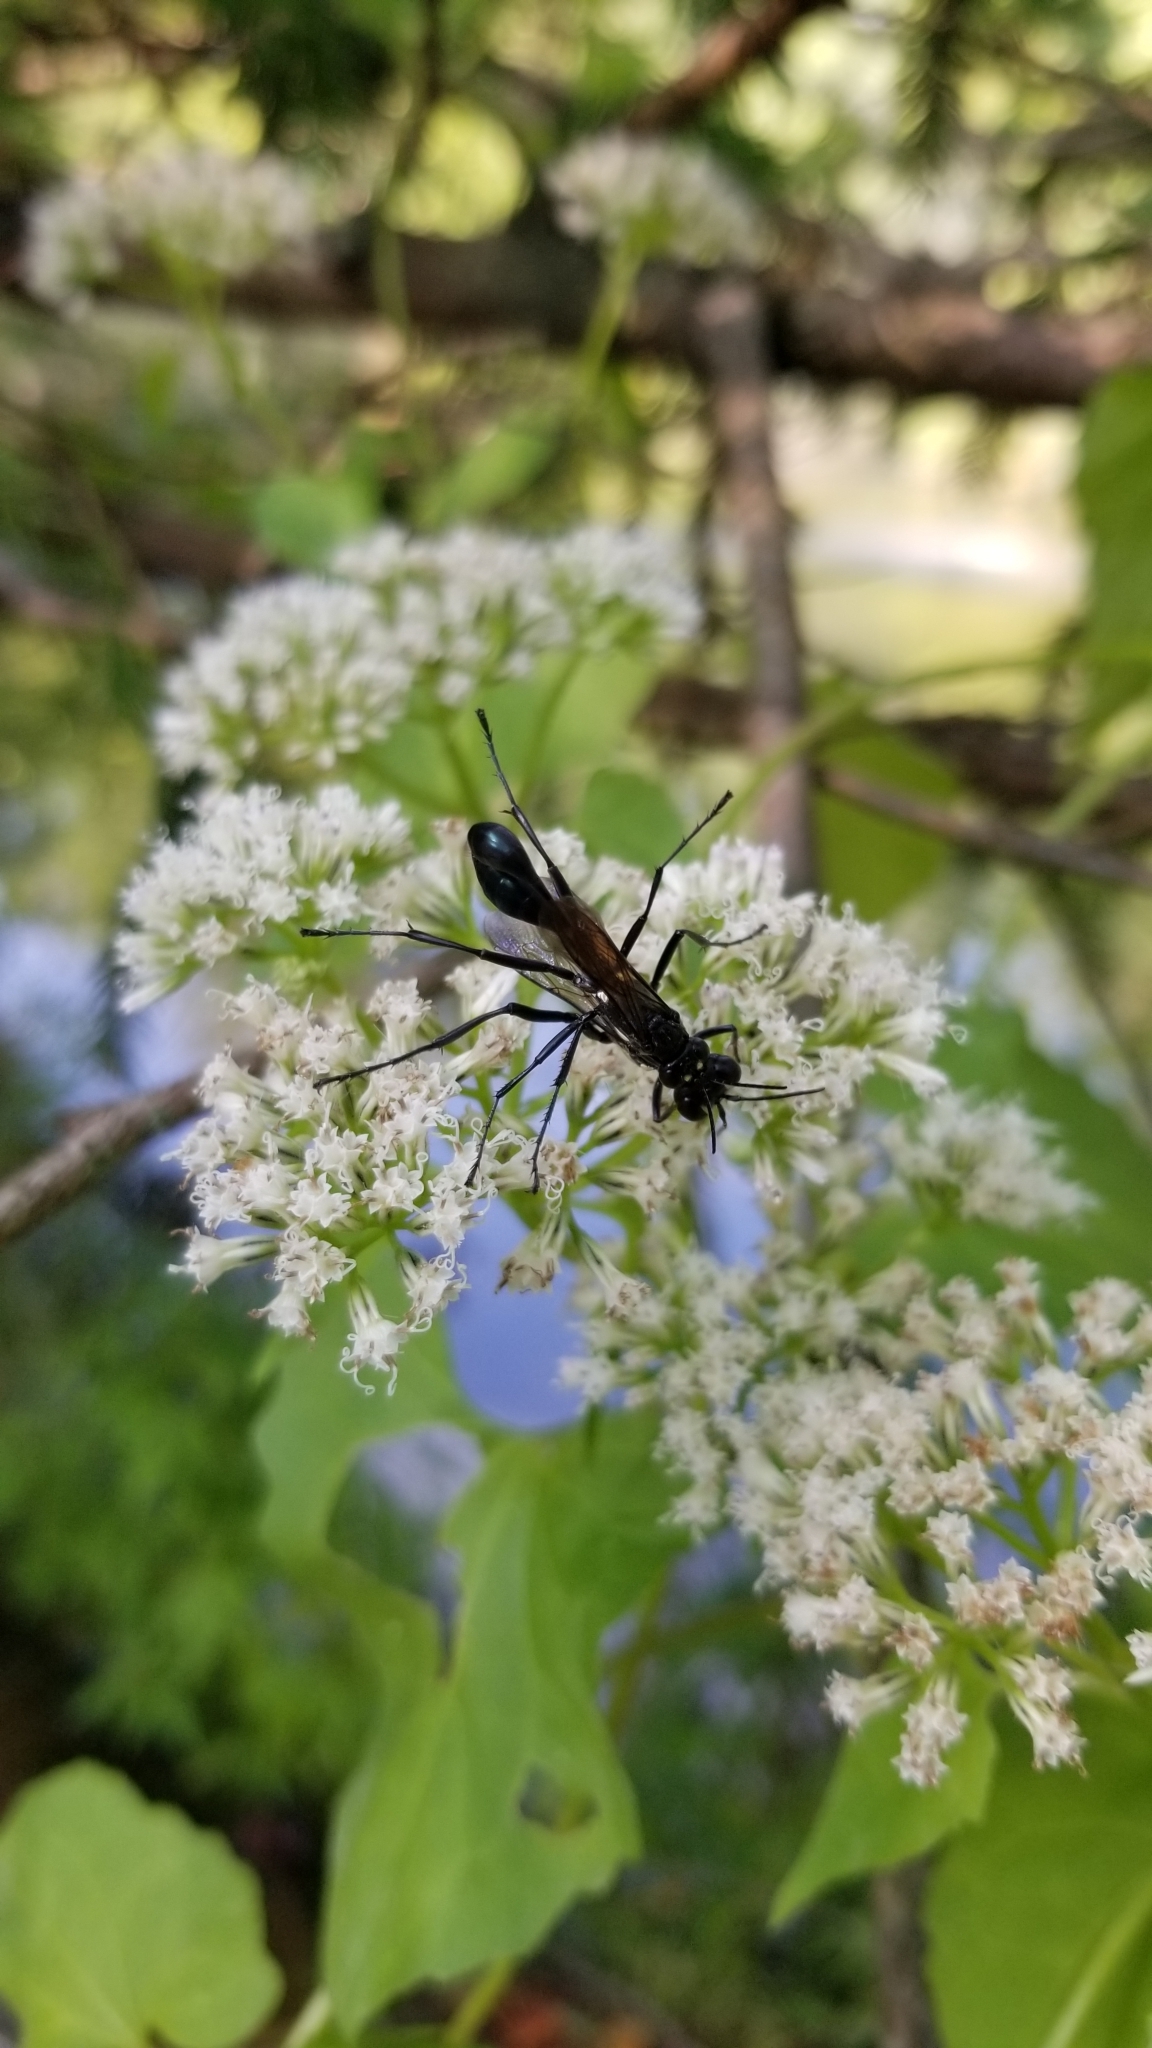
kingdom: Animalia
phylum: Arthropoda
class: Insecta
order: Hymenoptera
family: Sphecidae
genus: Eremnophila
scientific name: Eremnophila aureonotata
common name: Gold-marked thread-waisted wasp
